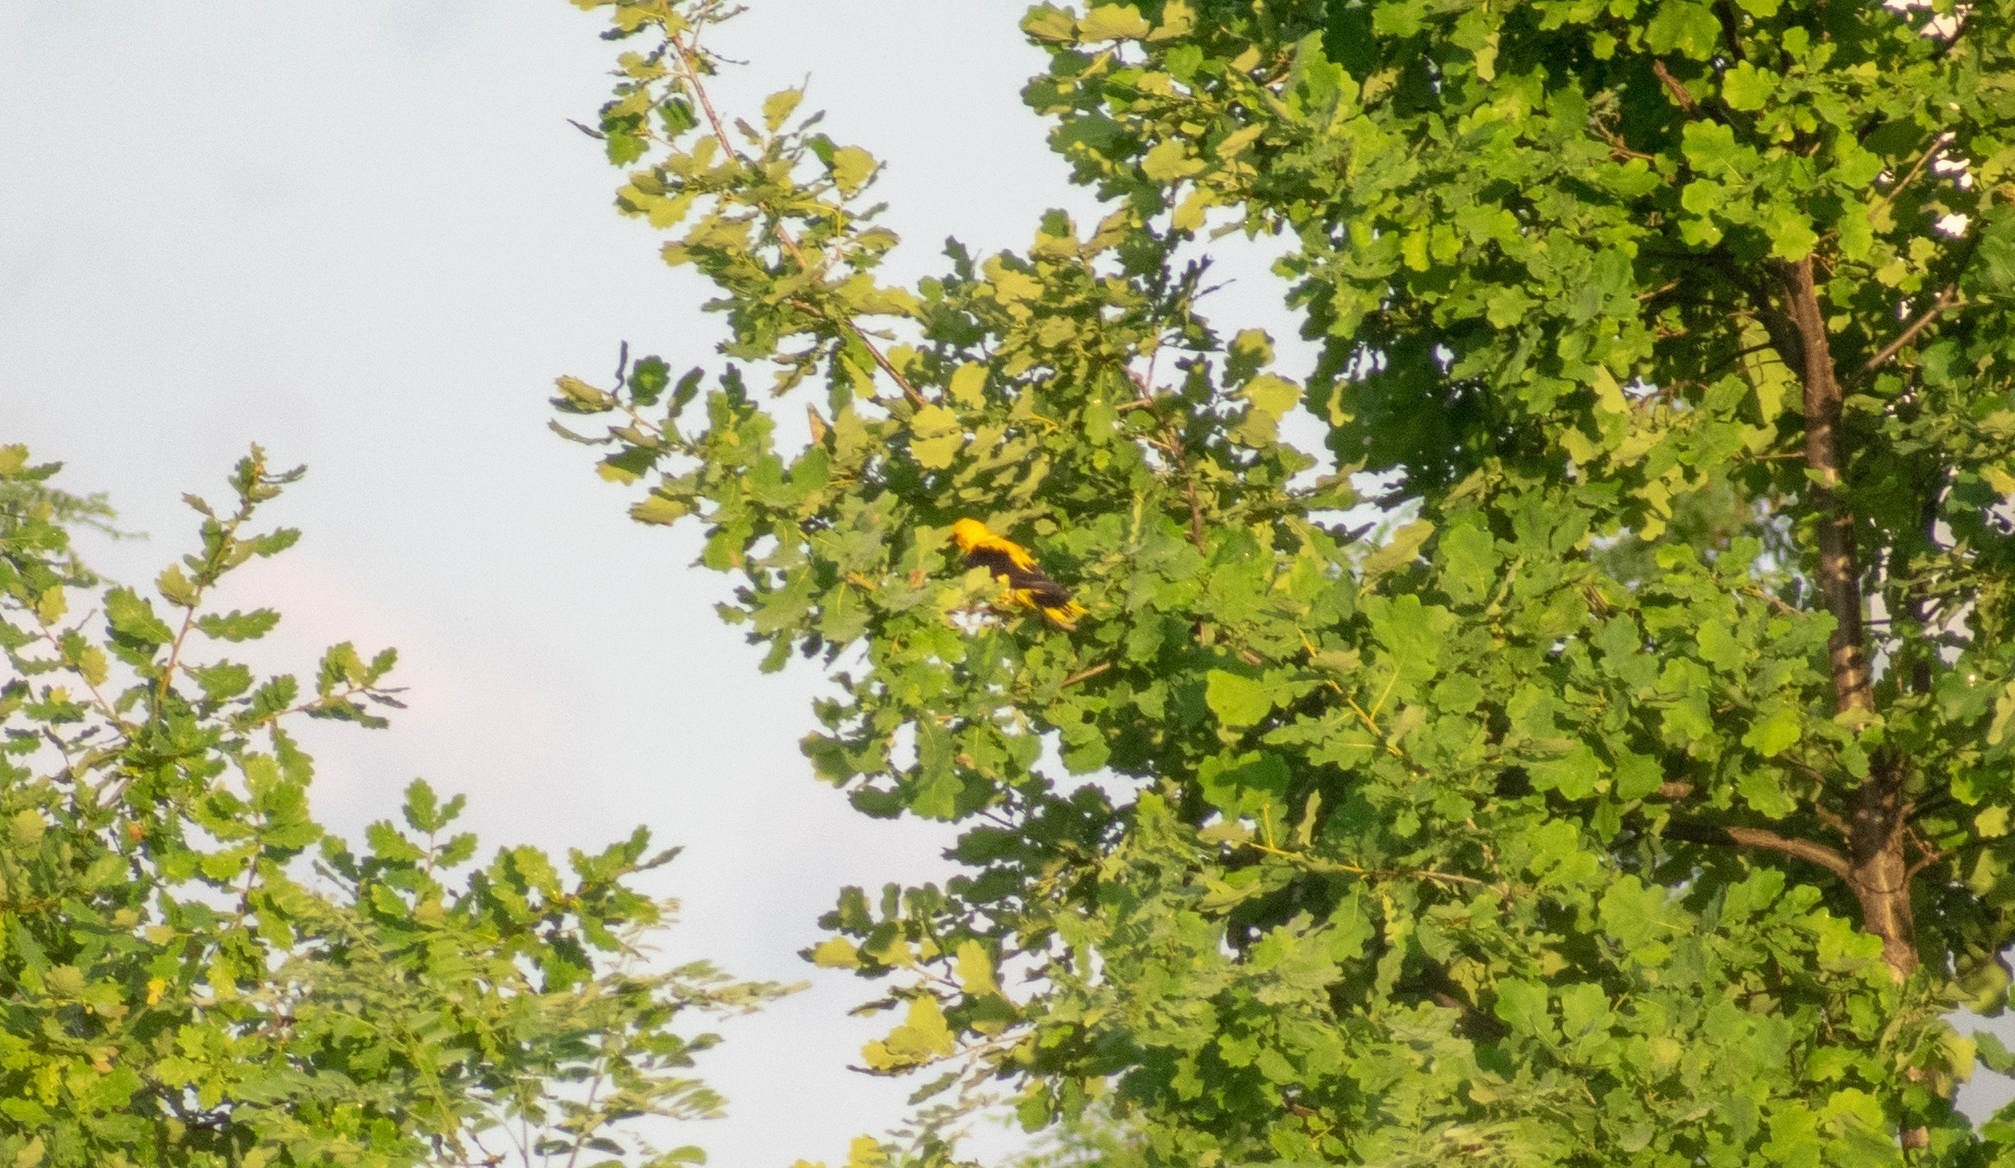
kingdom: Animalia
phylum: Chordata
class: Aves
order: Passeriformes
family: Oriolidae
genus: Oriolus
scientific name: Oriolus oriolus
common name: Eurasian golden oriole
